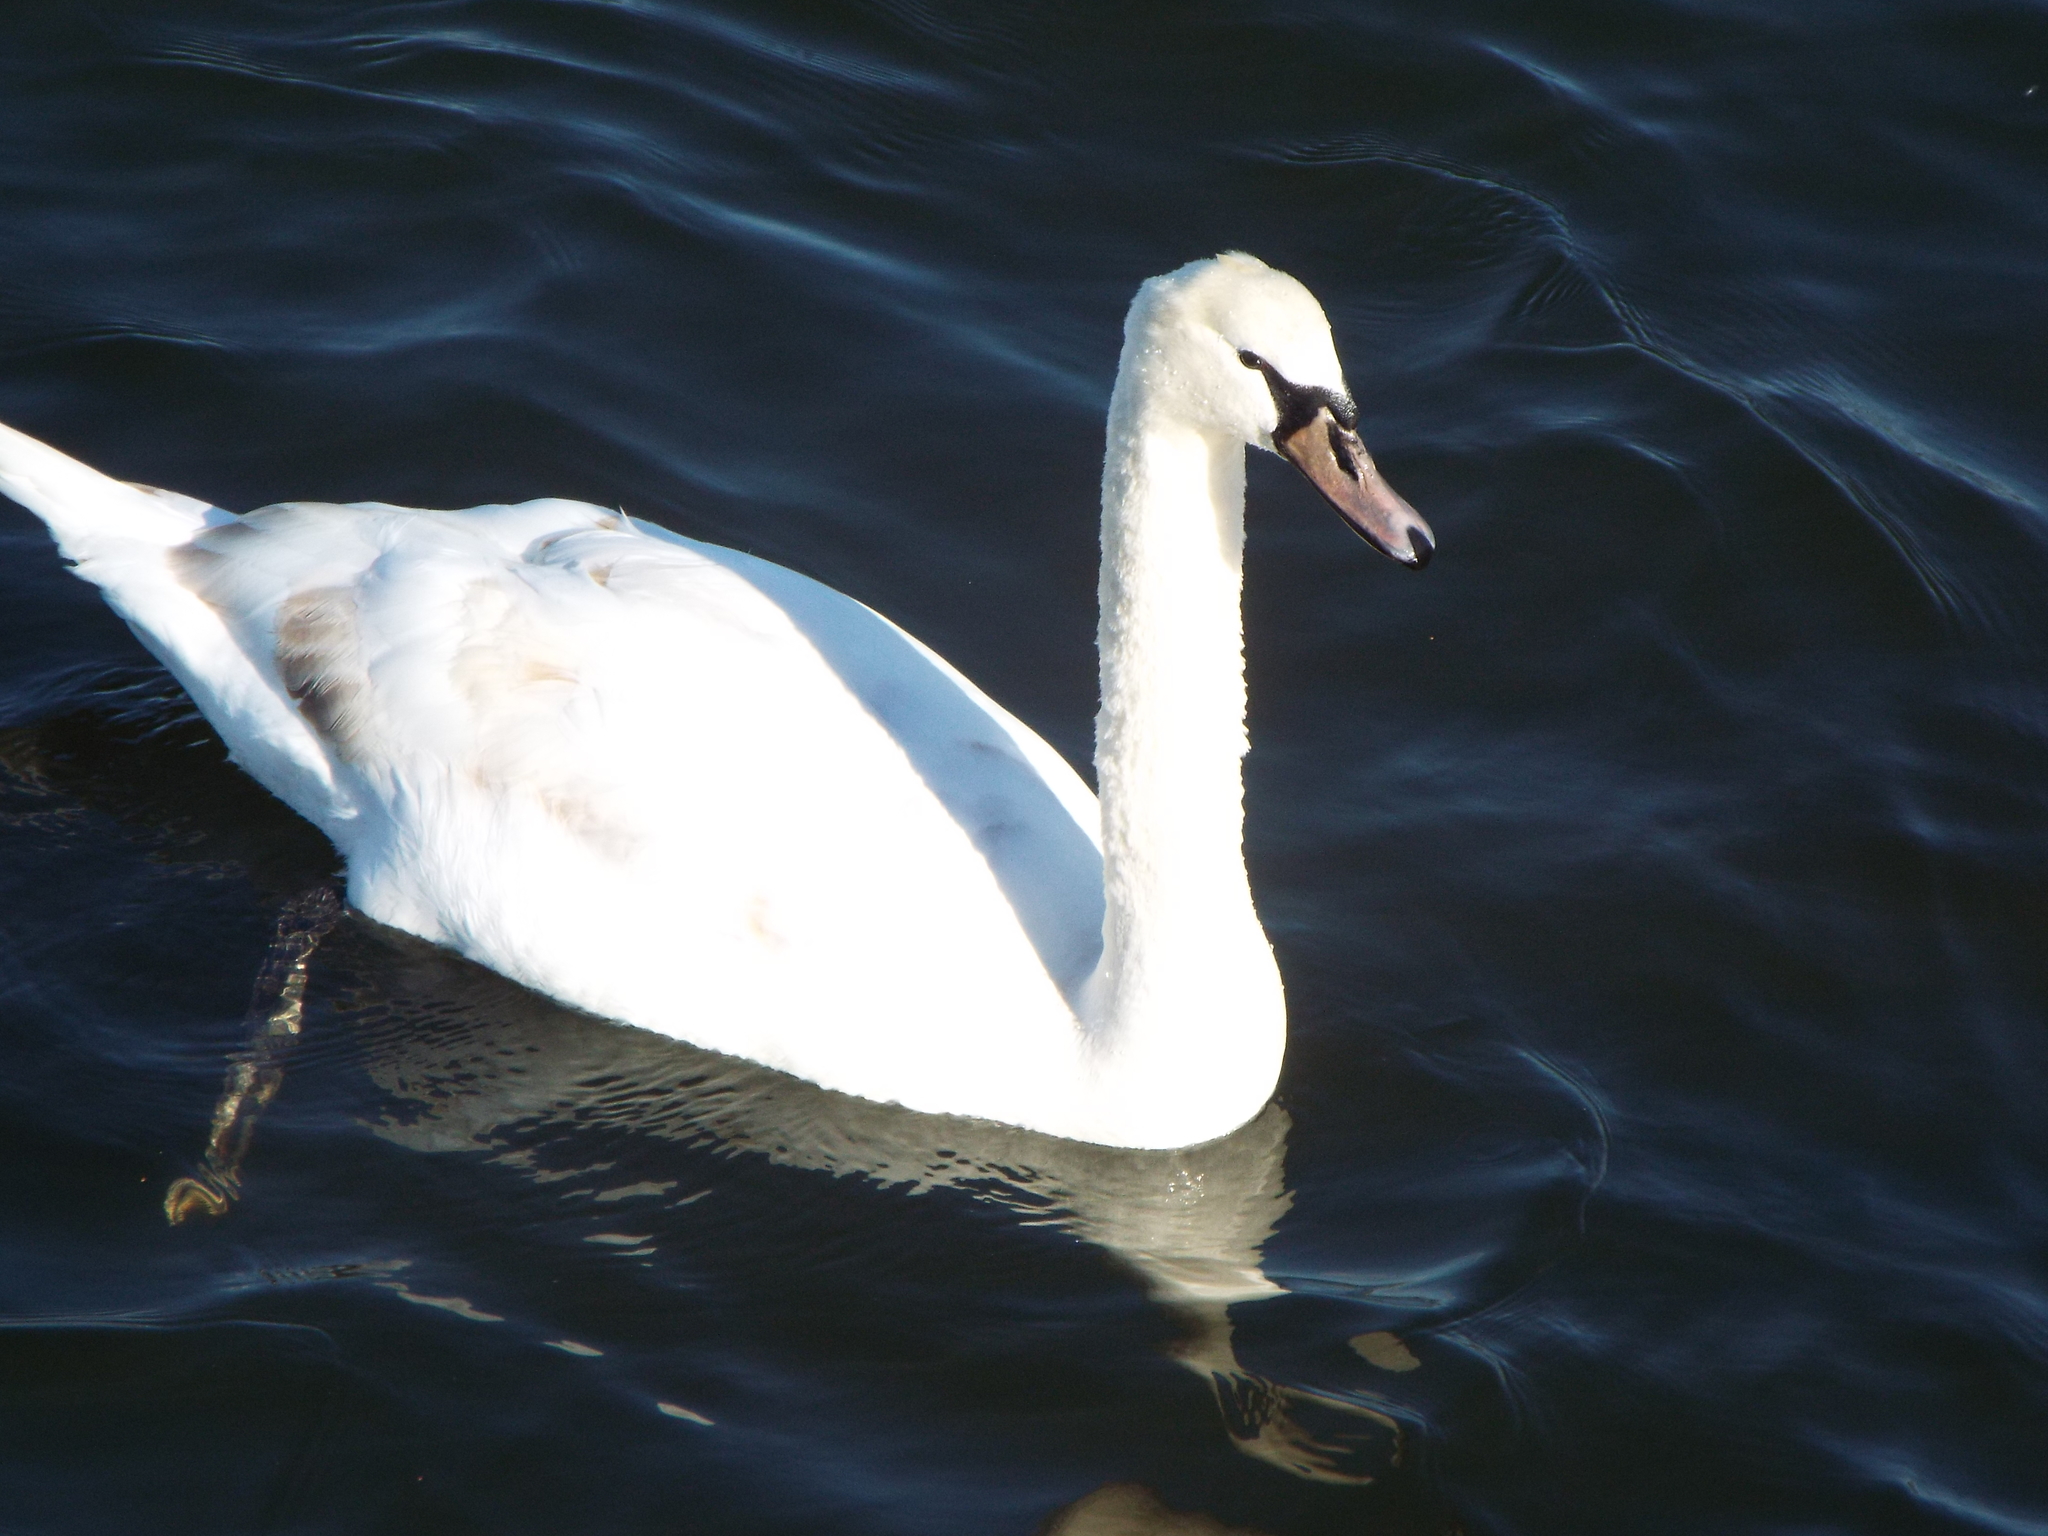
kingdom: Animalia
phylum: Chordata
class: Aves
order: Anseriformes
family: Anatidae
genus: Cygnus
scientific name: Cygnus olor
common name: Mute swan
